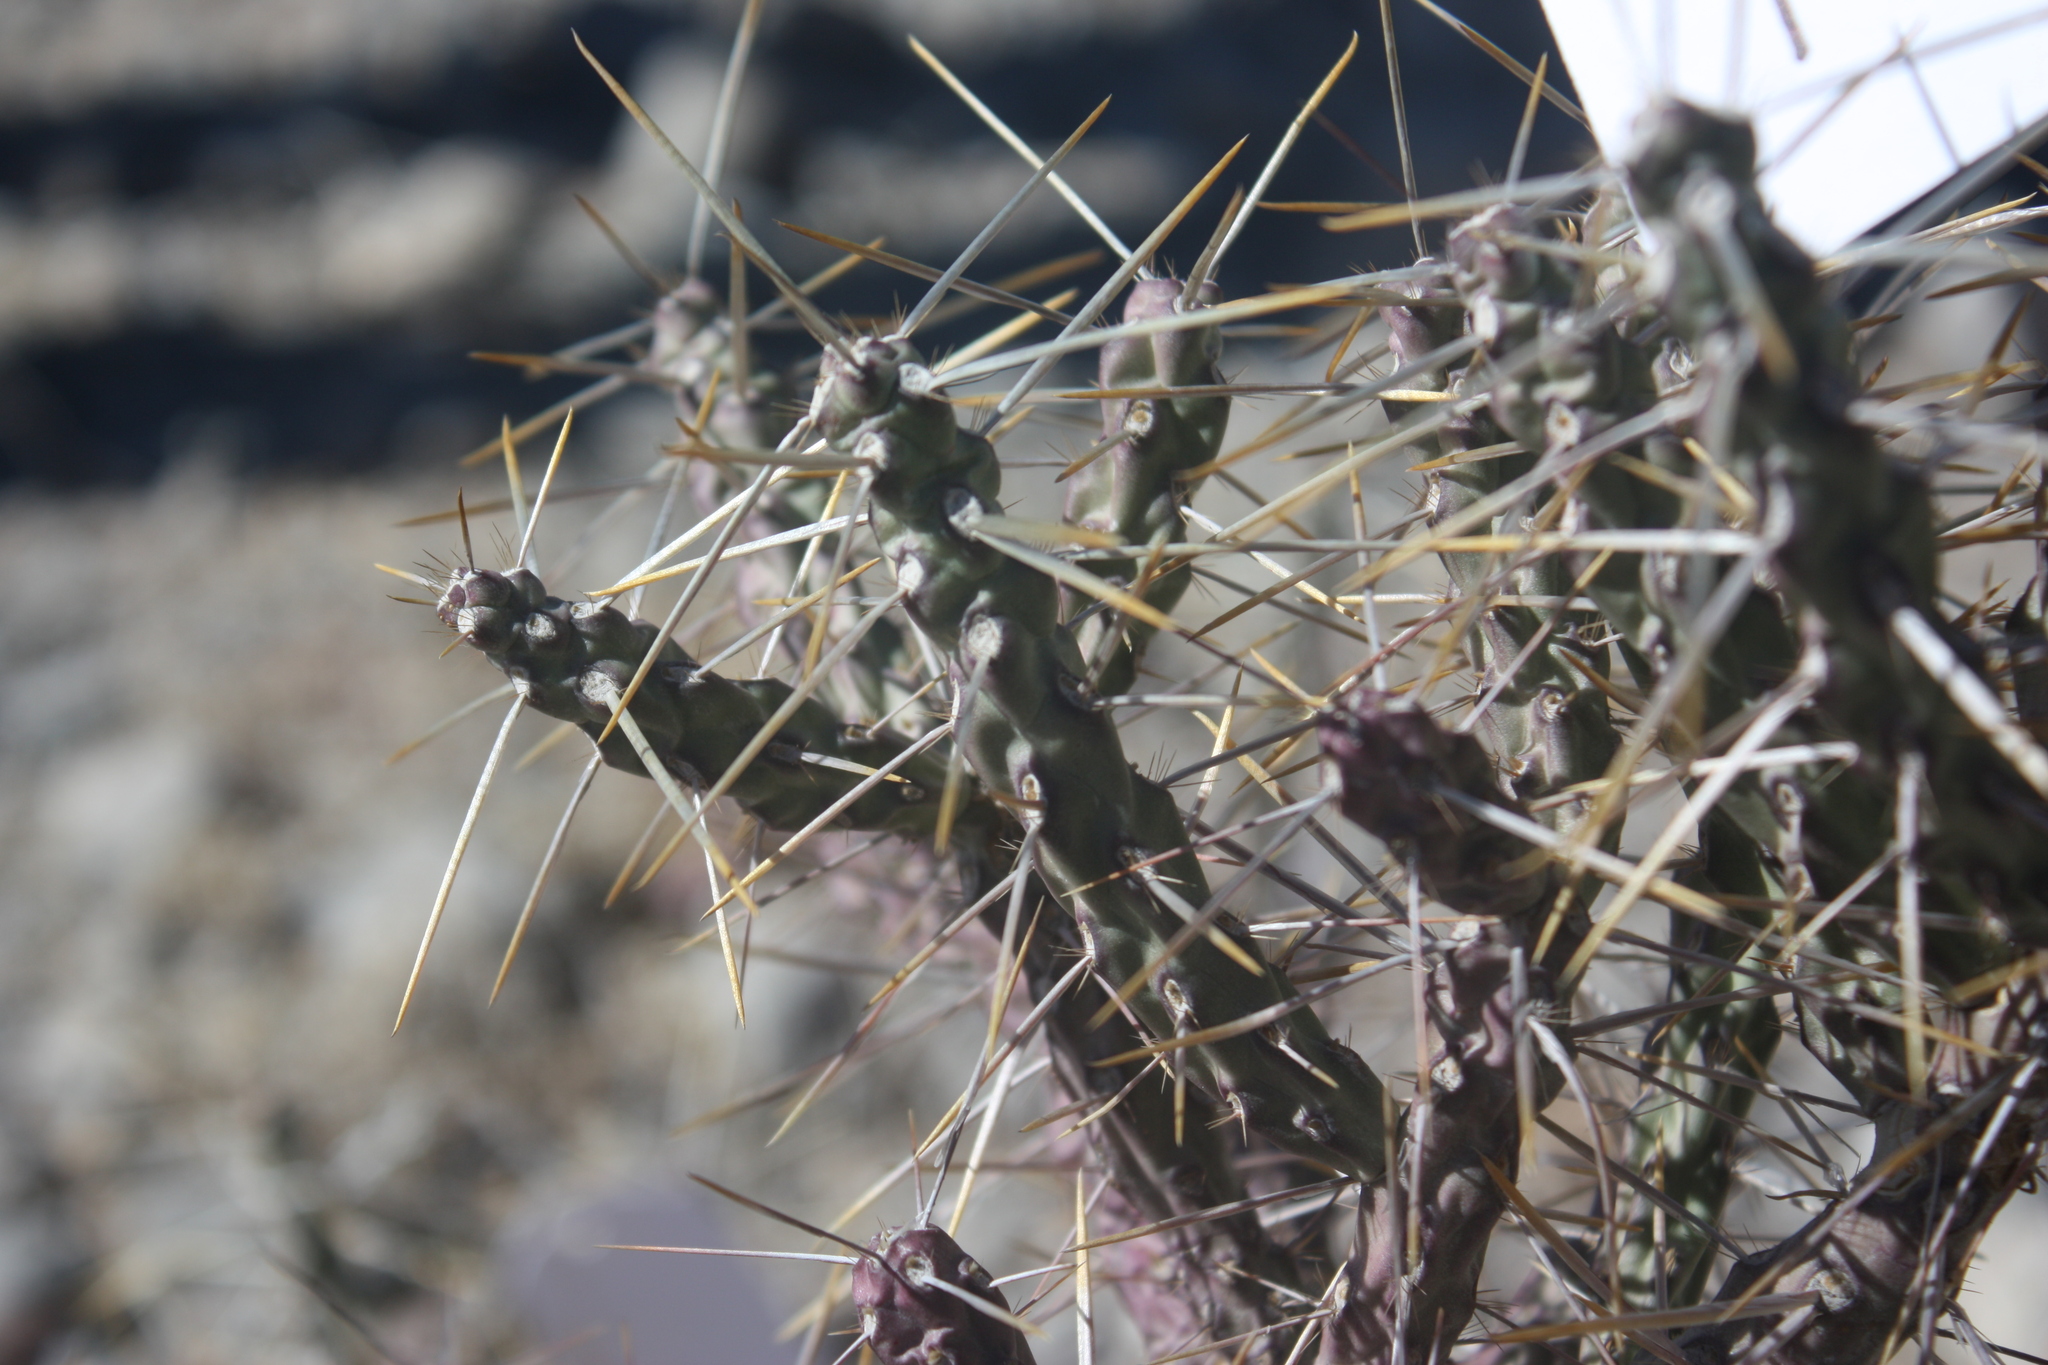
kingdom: Plantae
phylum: Tracheophyta
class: Magnoliopsida
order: Caryophyllales
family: Cactaceae
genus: Cylindropuntia
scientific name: Cylindropuntia kleiniae
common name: Klein's cholla
